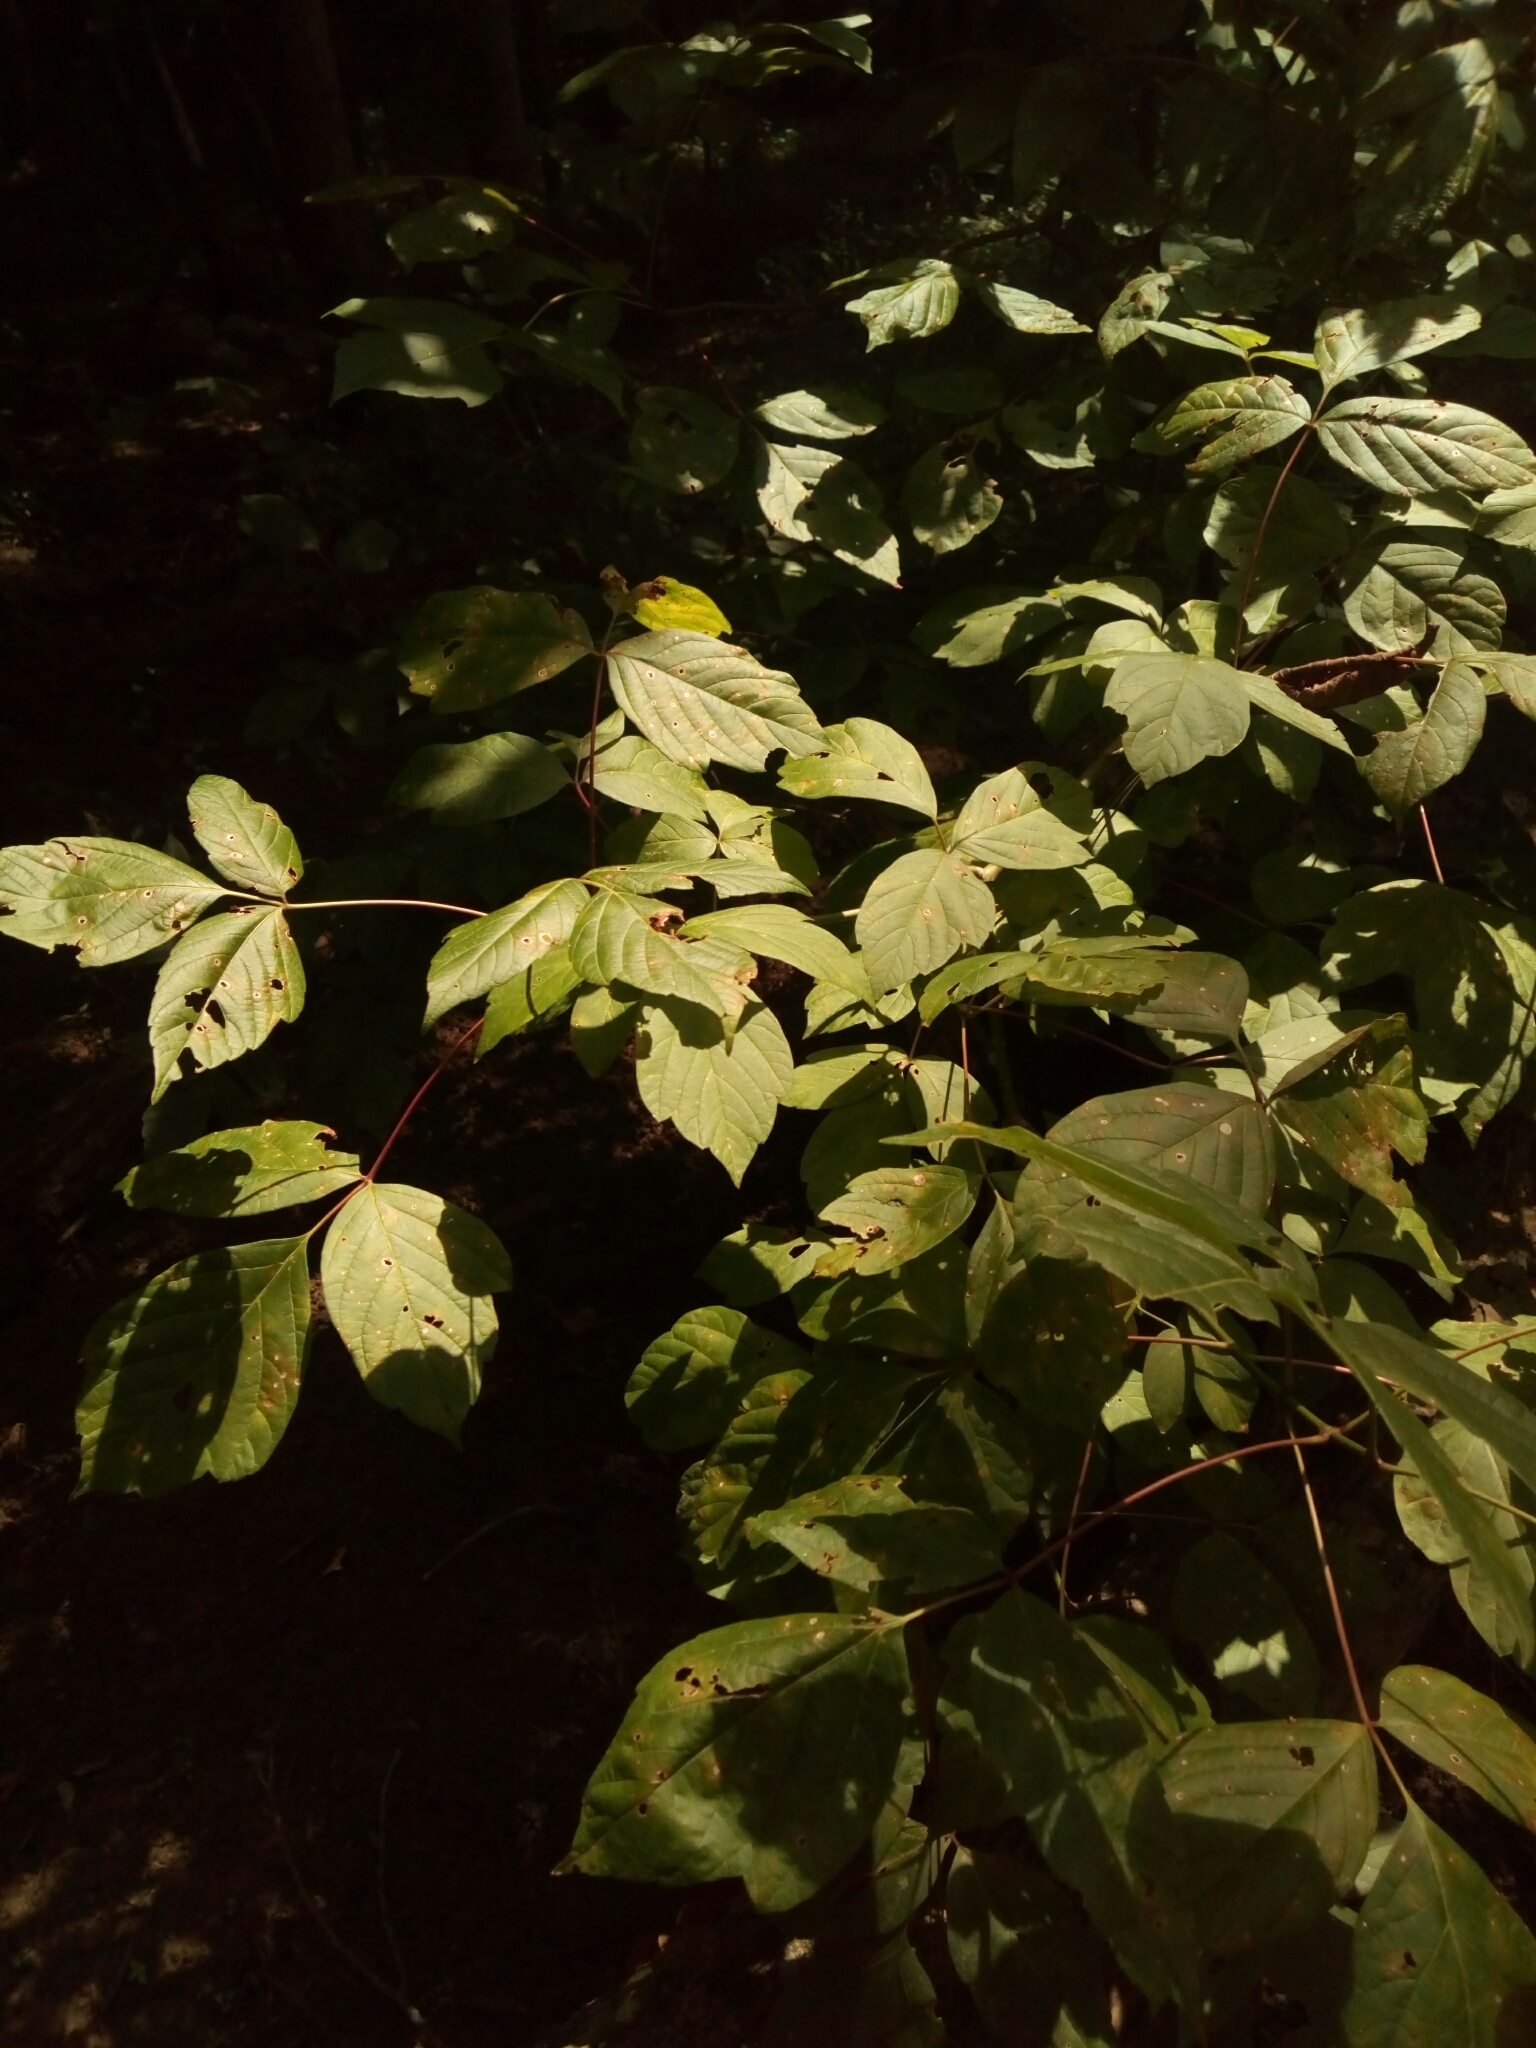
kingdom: Plantae
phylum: Tracheophyta
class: Magnoliopsida
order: Sapindales
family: Sapindaceae
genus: Acer
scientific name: Acer negundo
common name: Ashleaf maple
